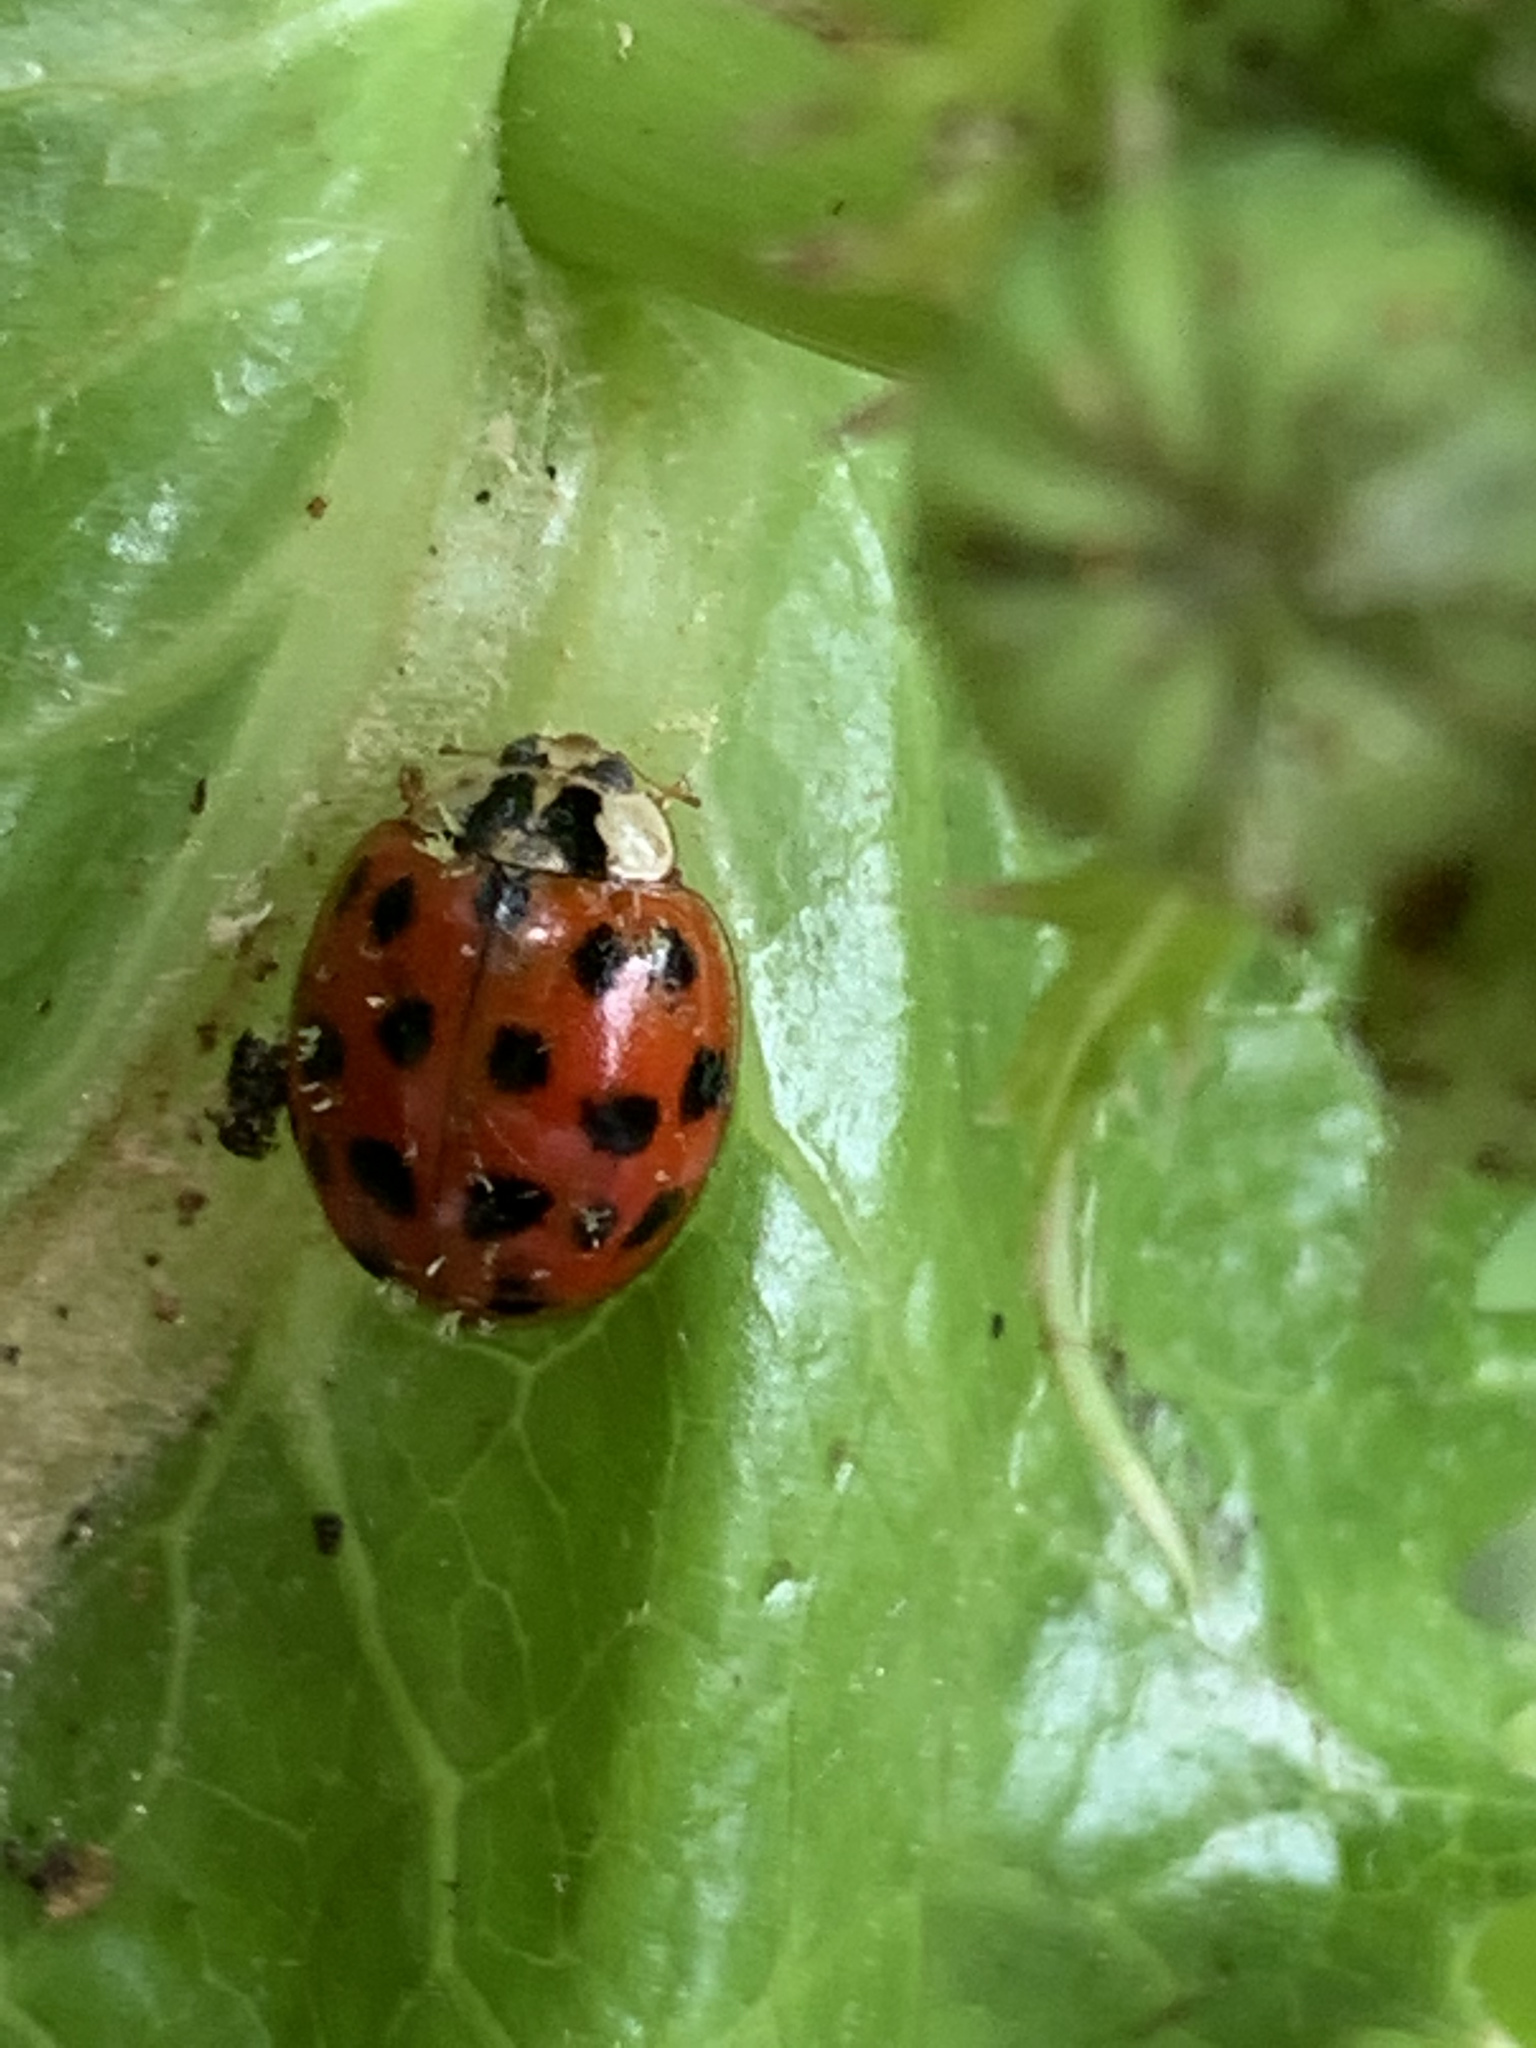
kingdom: Animalia
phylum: Arthropoda
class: Insecta
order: Coleoptera
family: Coccinellidae
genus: Harmonia
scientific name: Harmonia axyridis
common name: Harlequin ladybird
